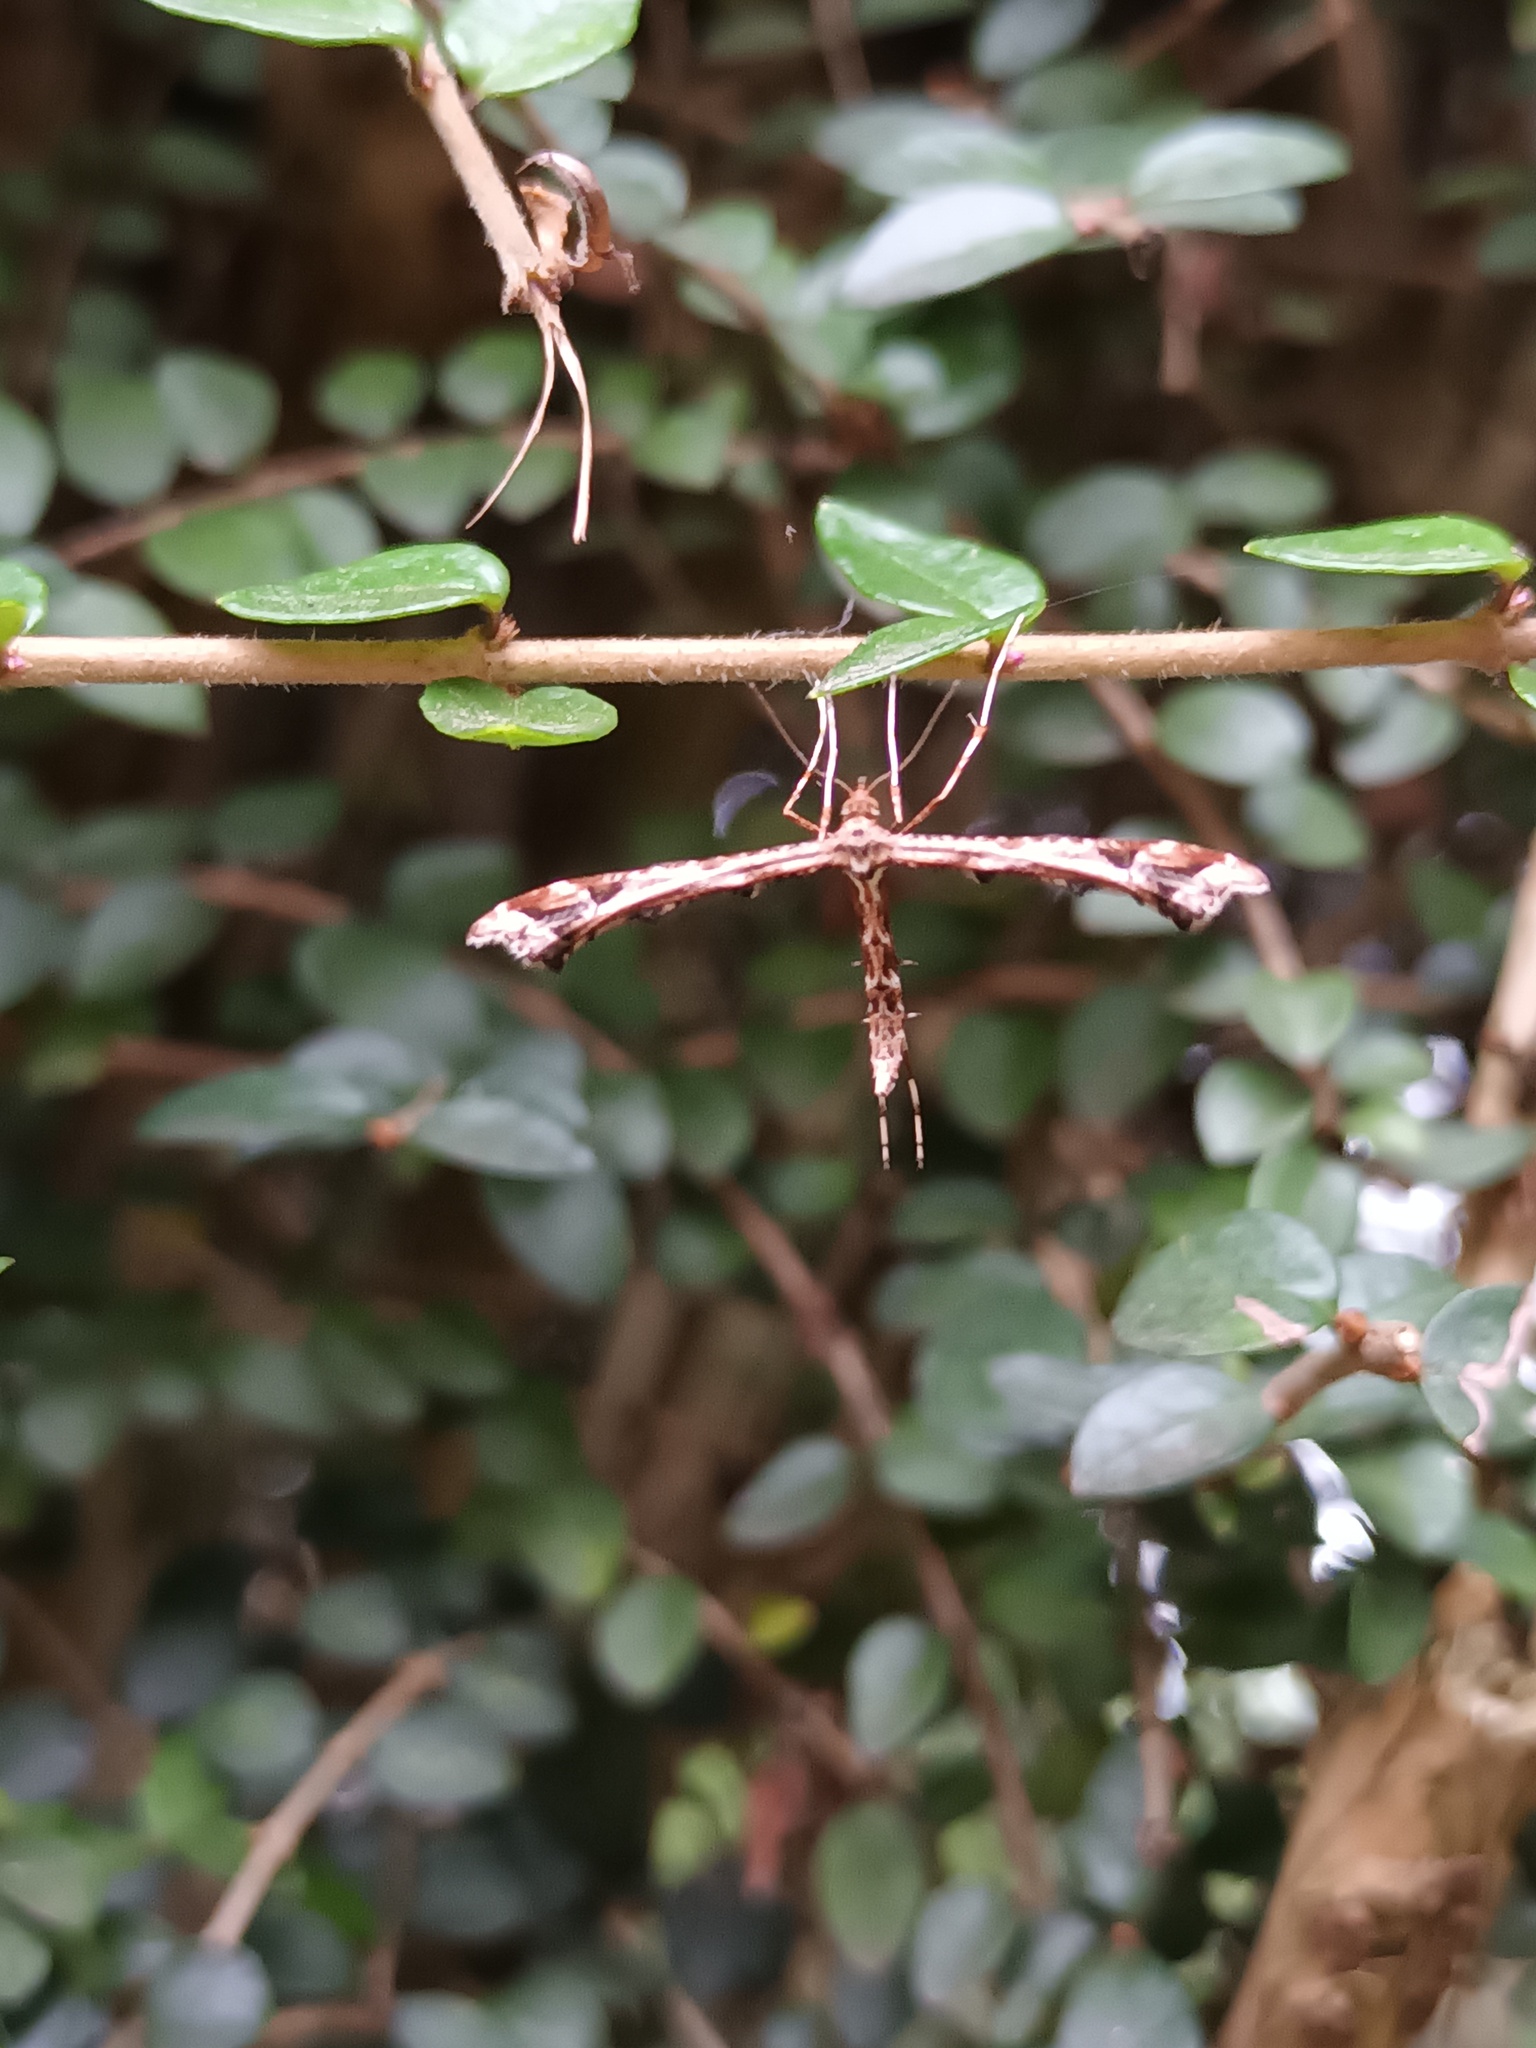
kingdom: Animalia
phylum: Arthropoda
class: Insecta
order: Lepidoptera
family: Pterophoridae
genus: Amblyptilia
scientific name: Amblyptilia acanthadactyla
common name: Beautiful plume
